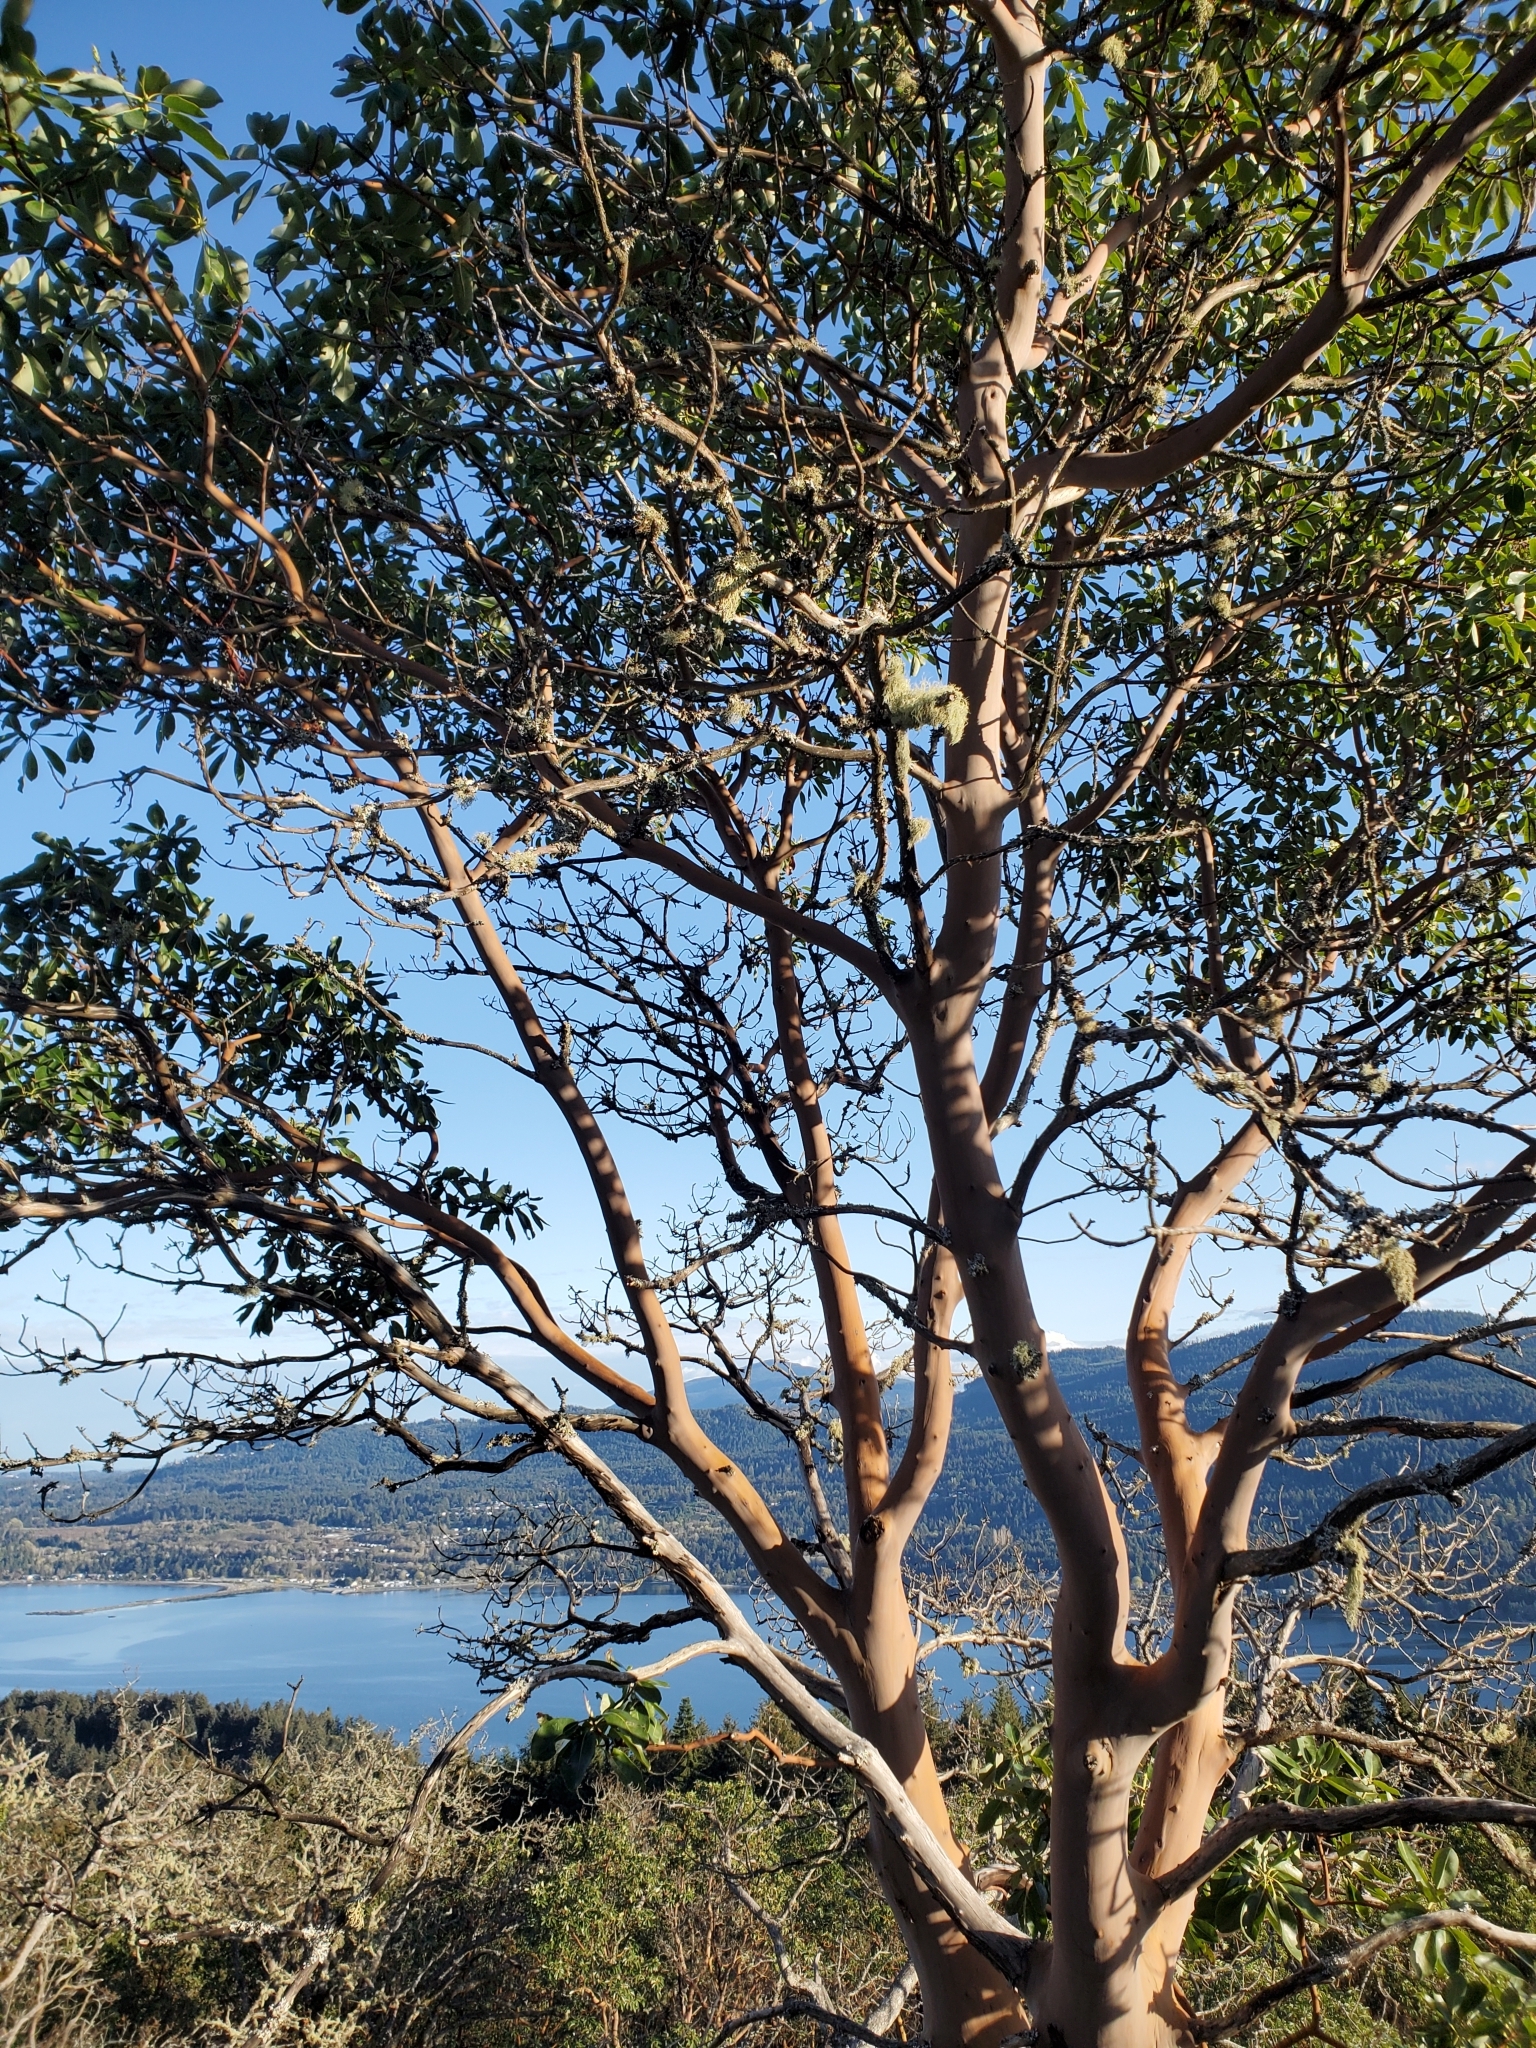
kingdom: Plantae
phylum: Tracheophyta
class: Magnoliopsida
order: Ericales
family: Ericaceae
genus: Arbutus
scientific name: Arbutus menziesii
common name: Pacific madrone
